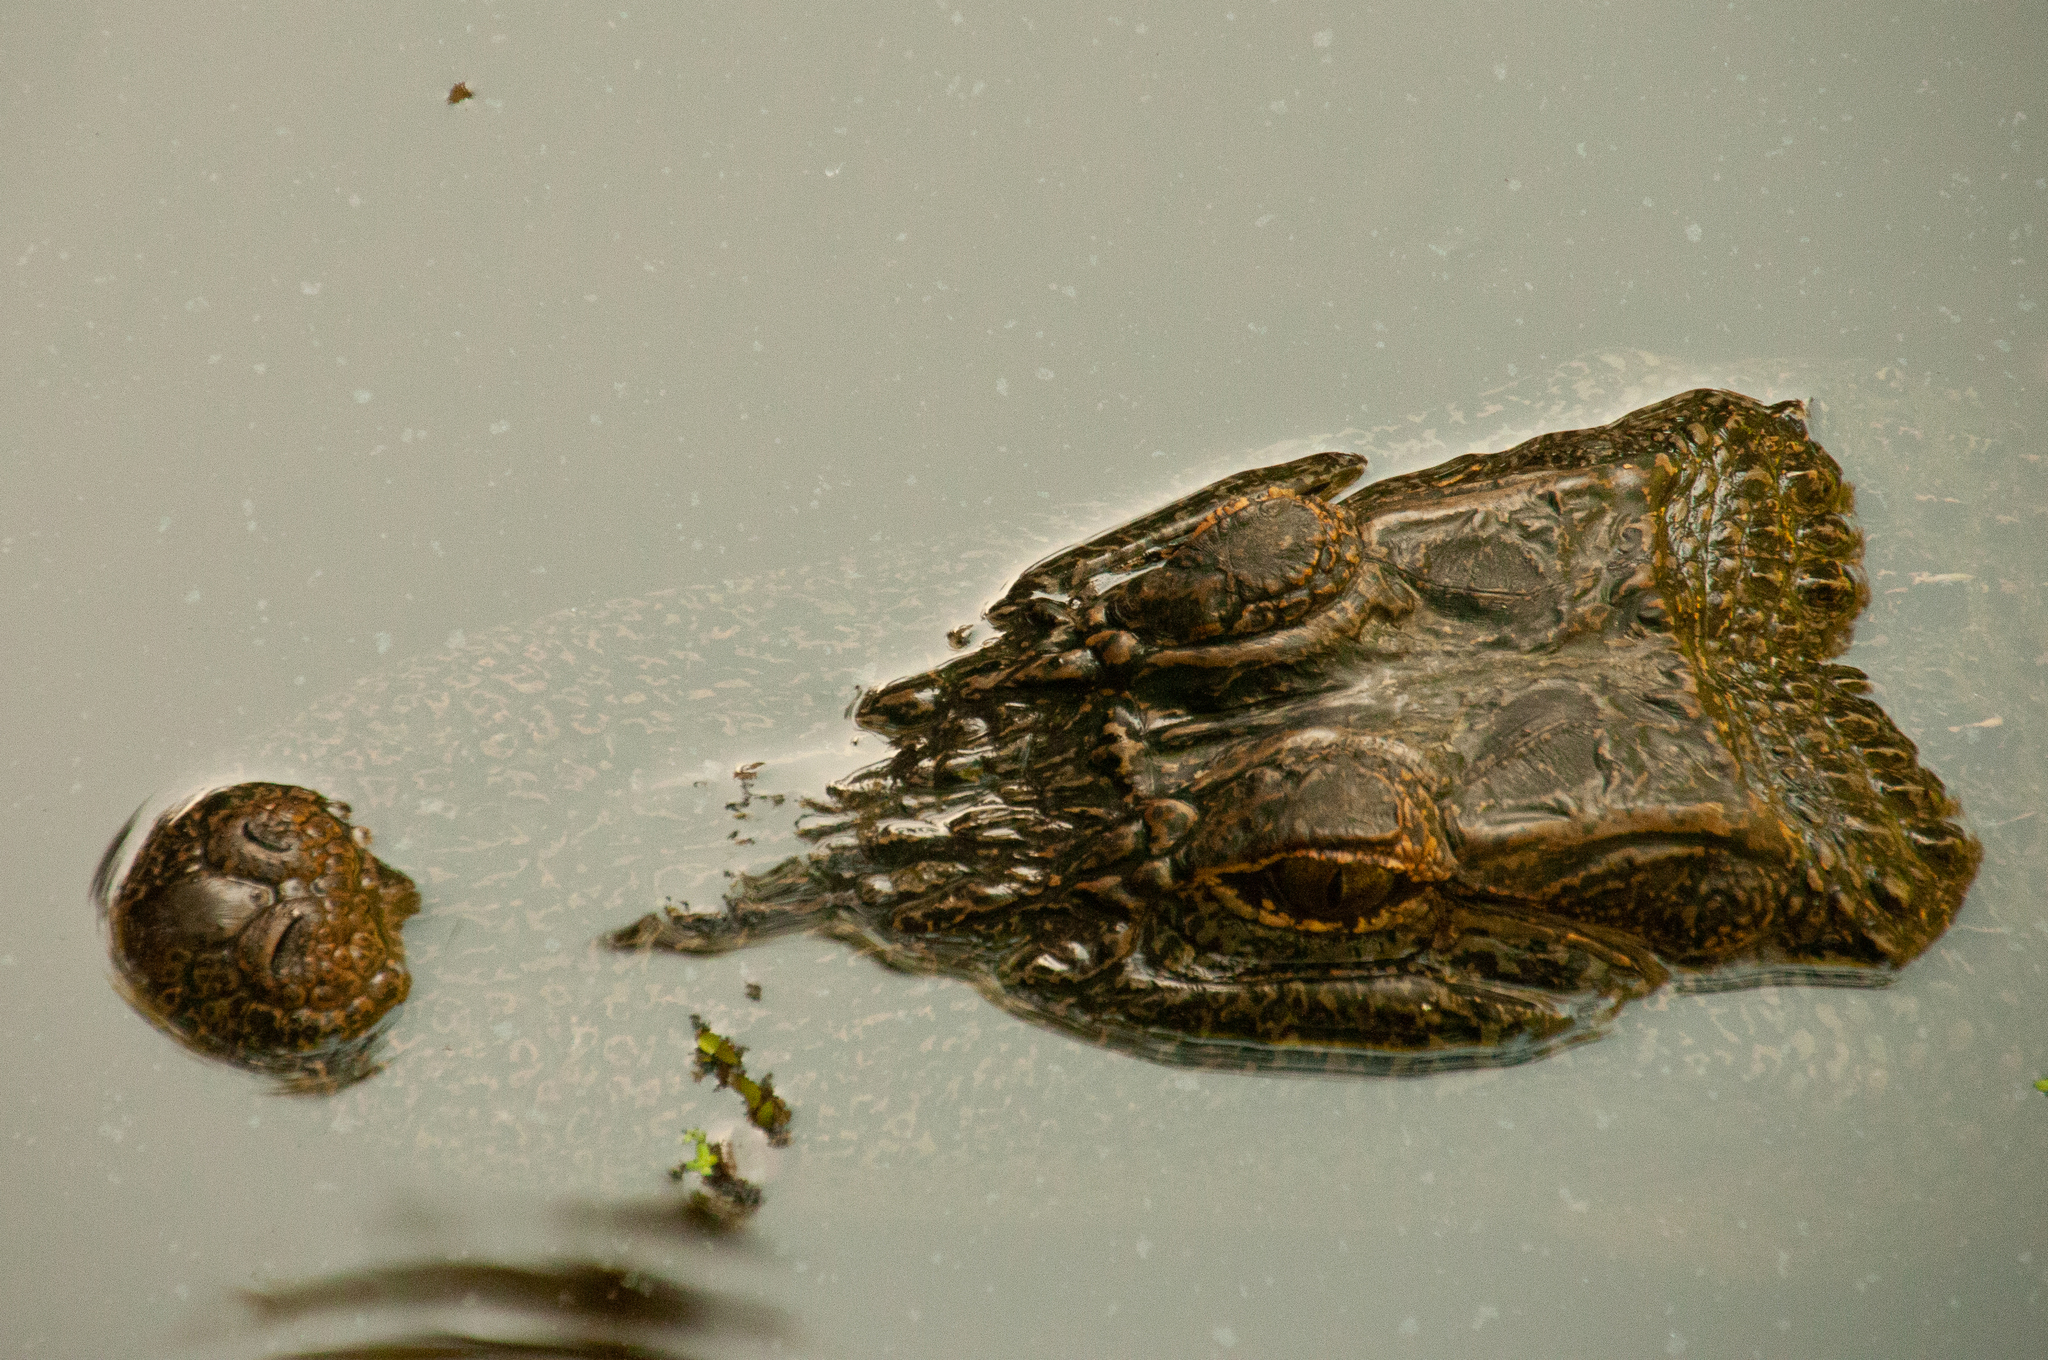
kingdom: Animalia
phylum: Chordata
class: Crocodylia
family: Alligatoridae
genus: Alligator
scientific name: Alligator mississippiensis
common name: American alligator
